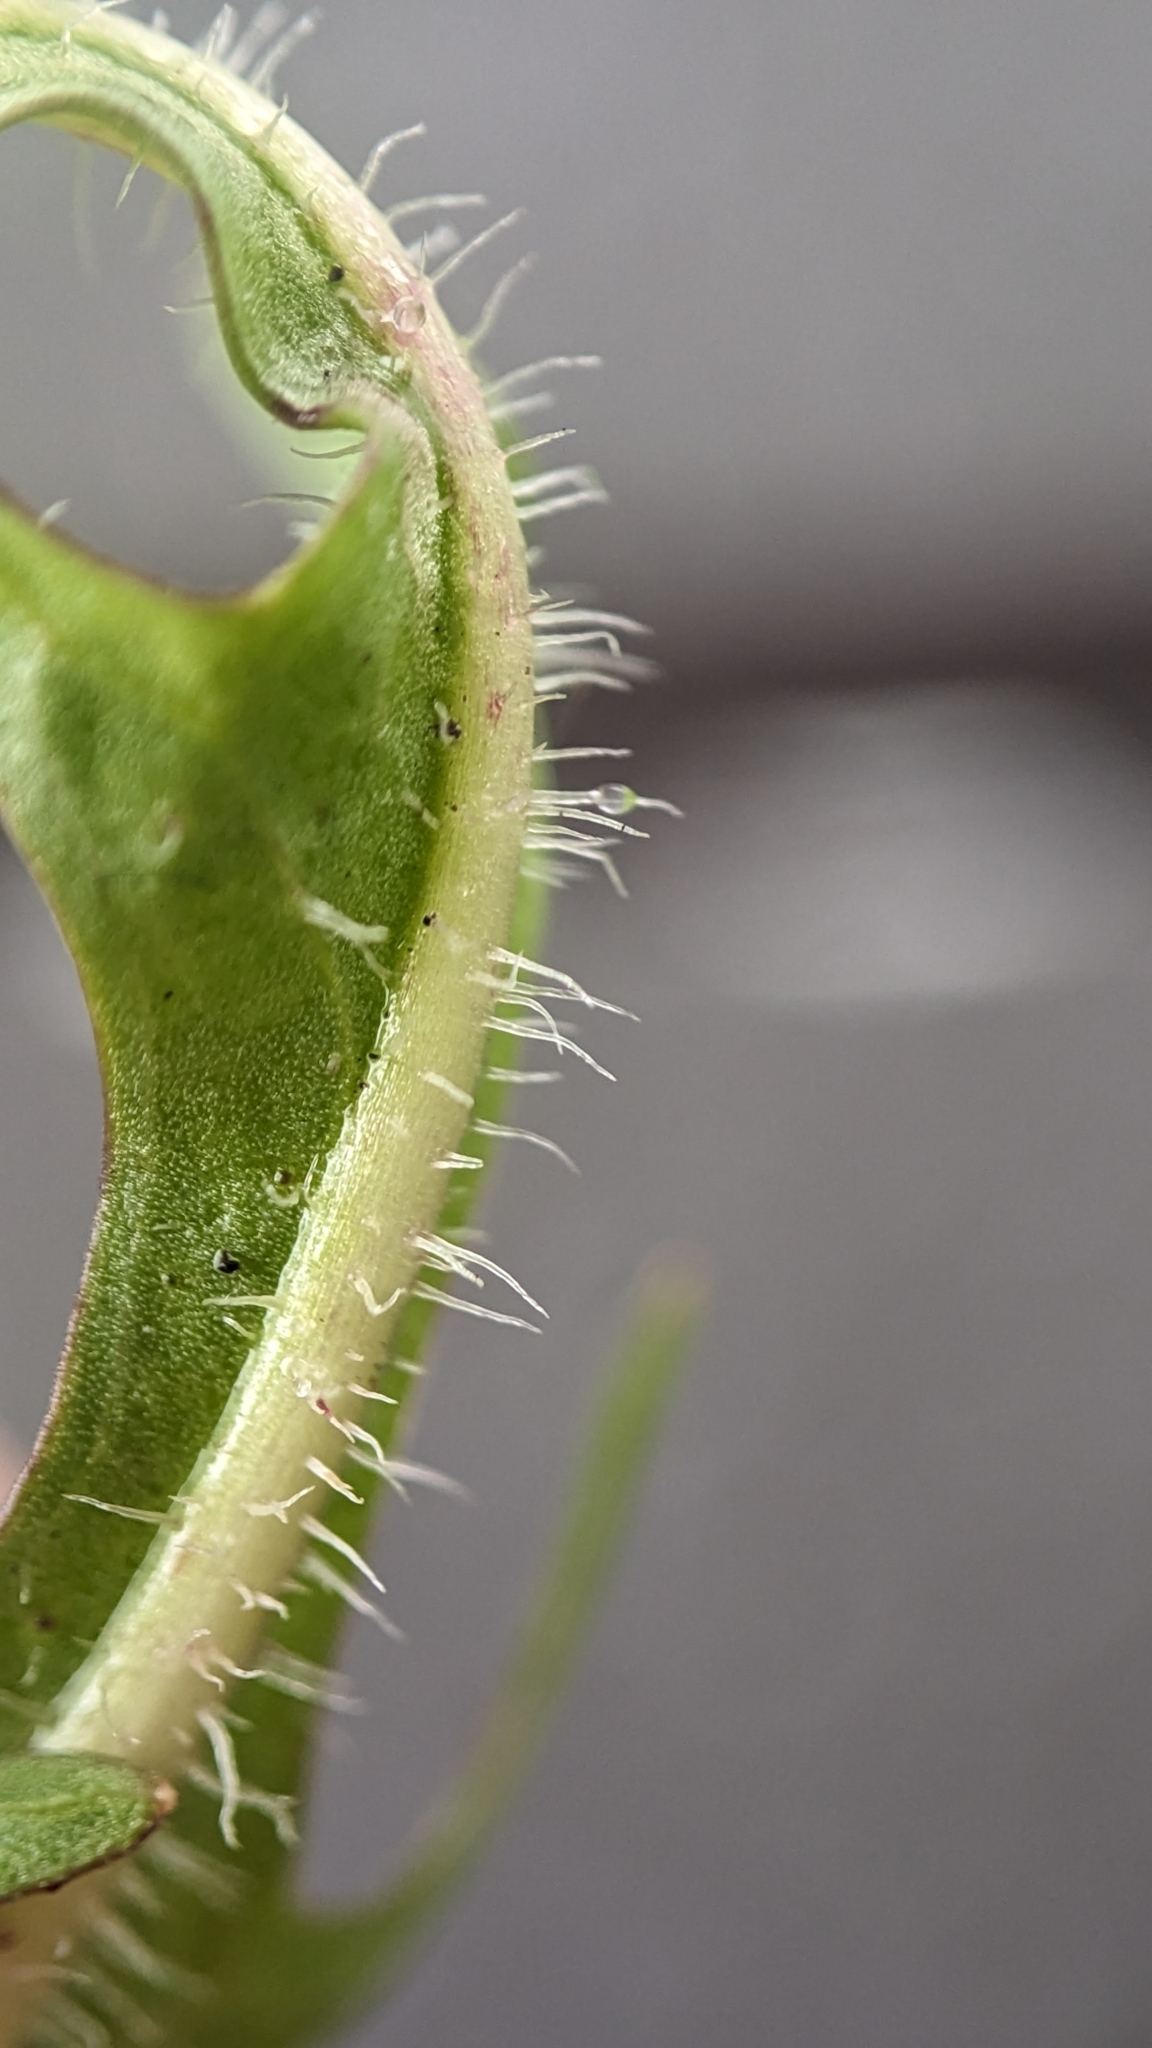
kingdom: Plantae
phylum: Tracheophyta
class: Magnoliopsida
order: Asterales
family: Asteraceae
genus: Scorzoneroides
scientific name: Scorzoneroides autumnalis
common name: Autumn hawkbit
